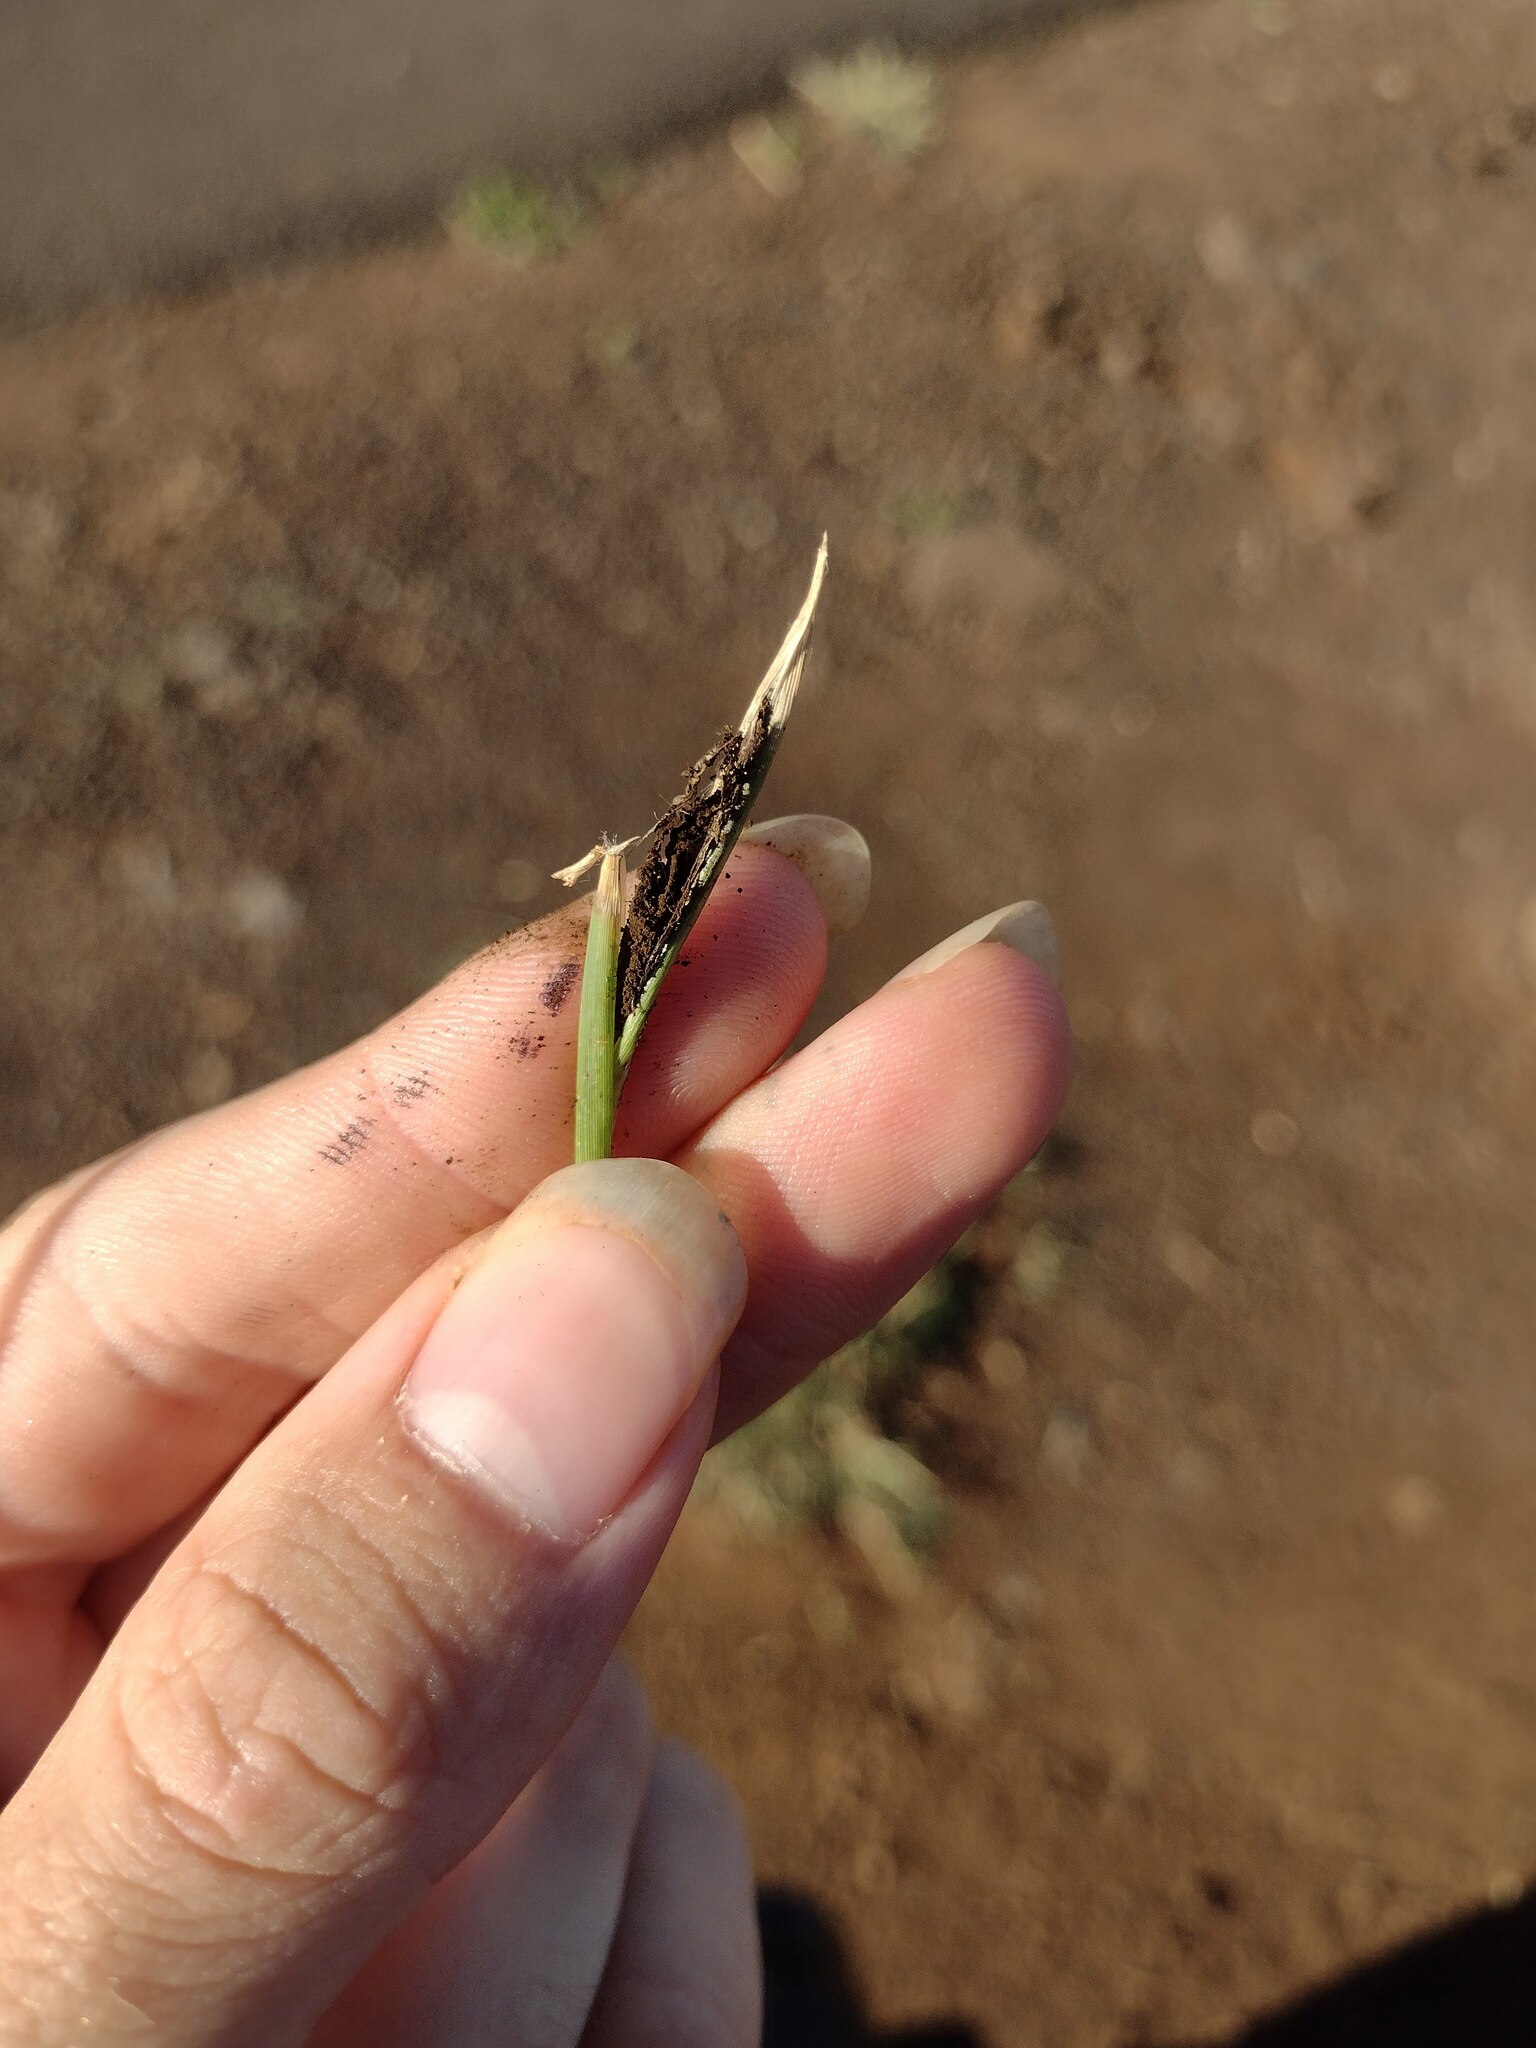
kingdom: Fungi
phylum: Basidiomycota
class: Ustilaginomycetes
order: Ustilaginales
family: Ustilaginaceae
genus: Ustilago
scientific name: Ustilago cynodontis
